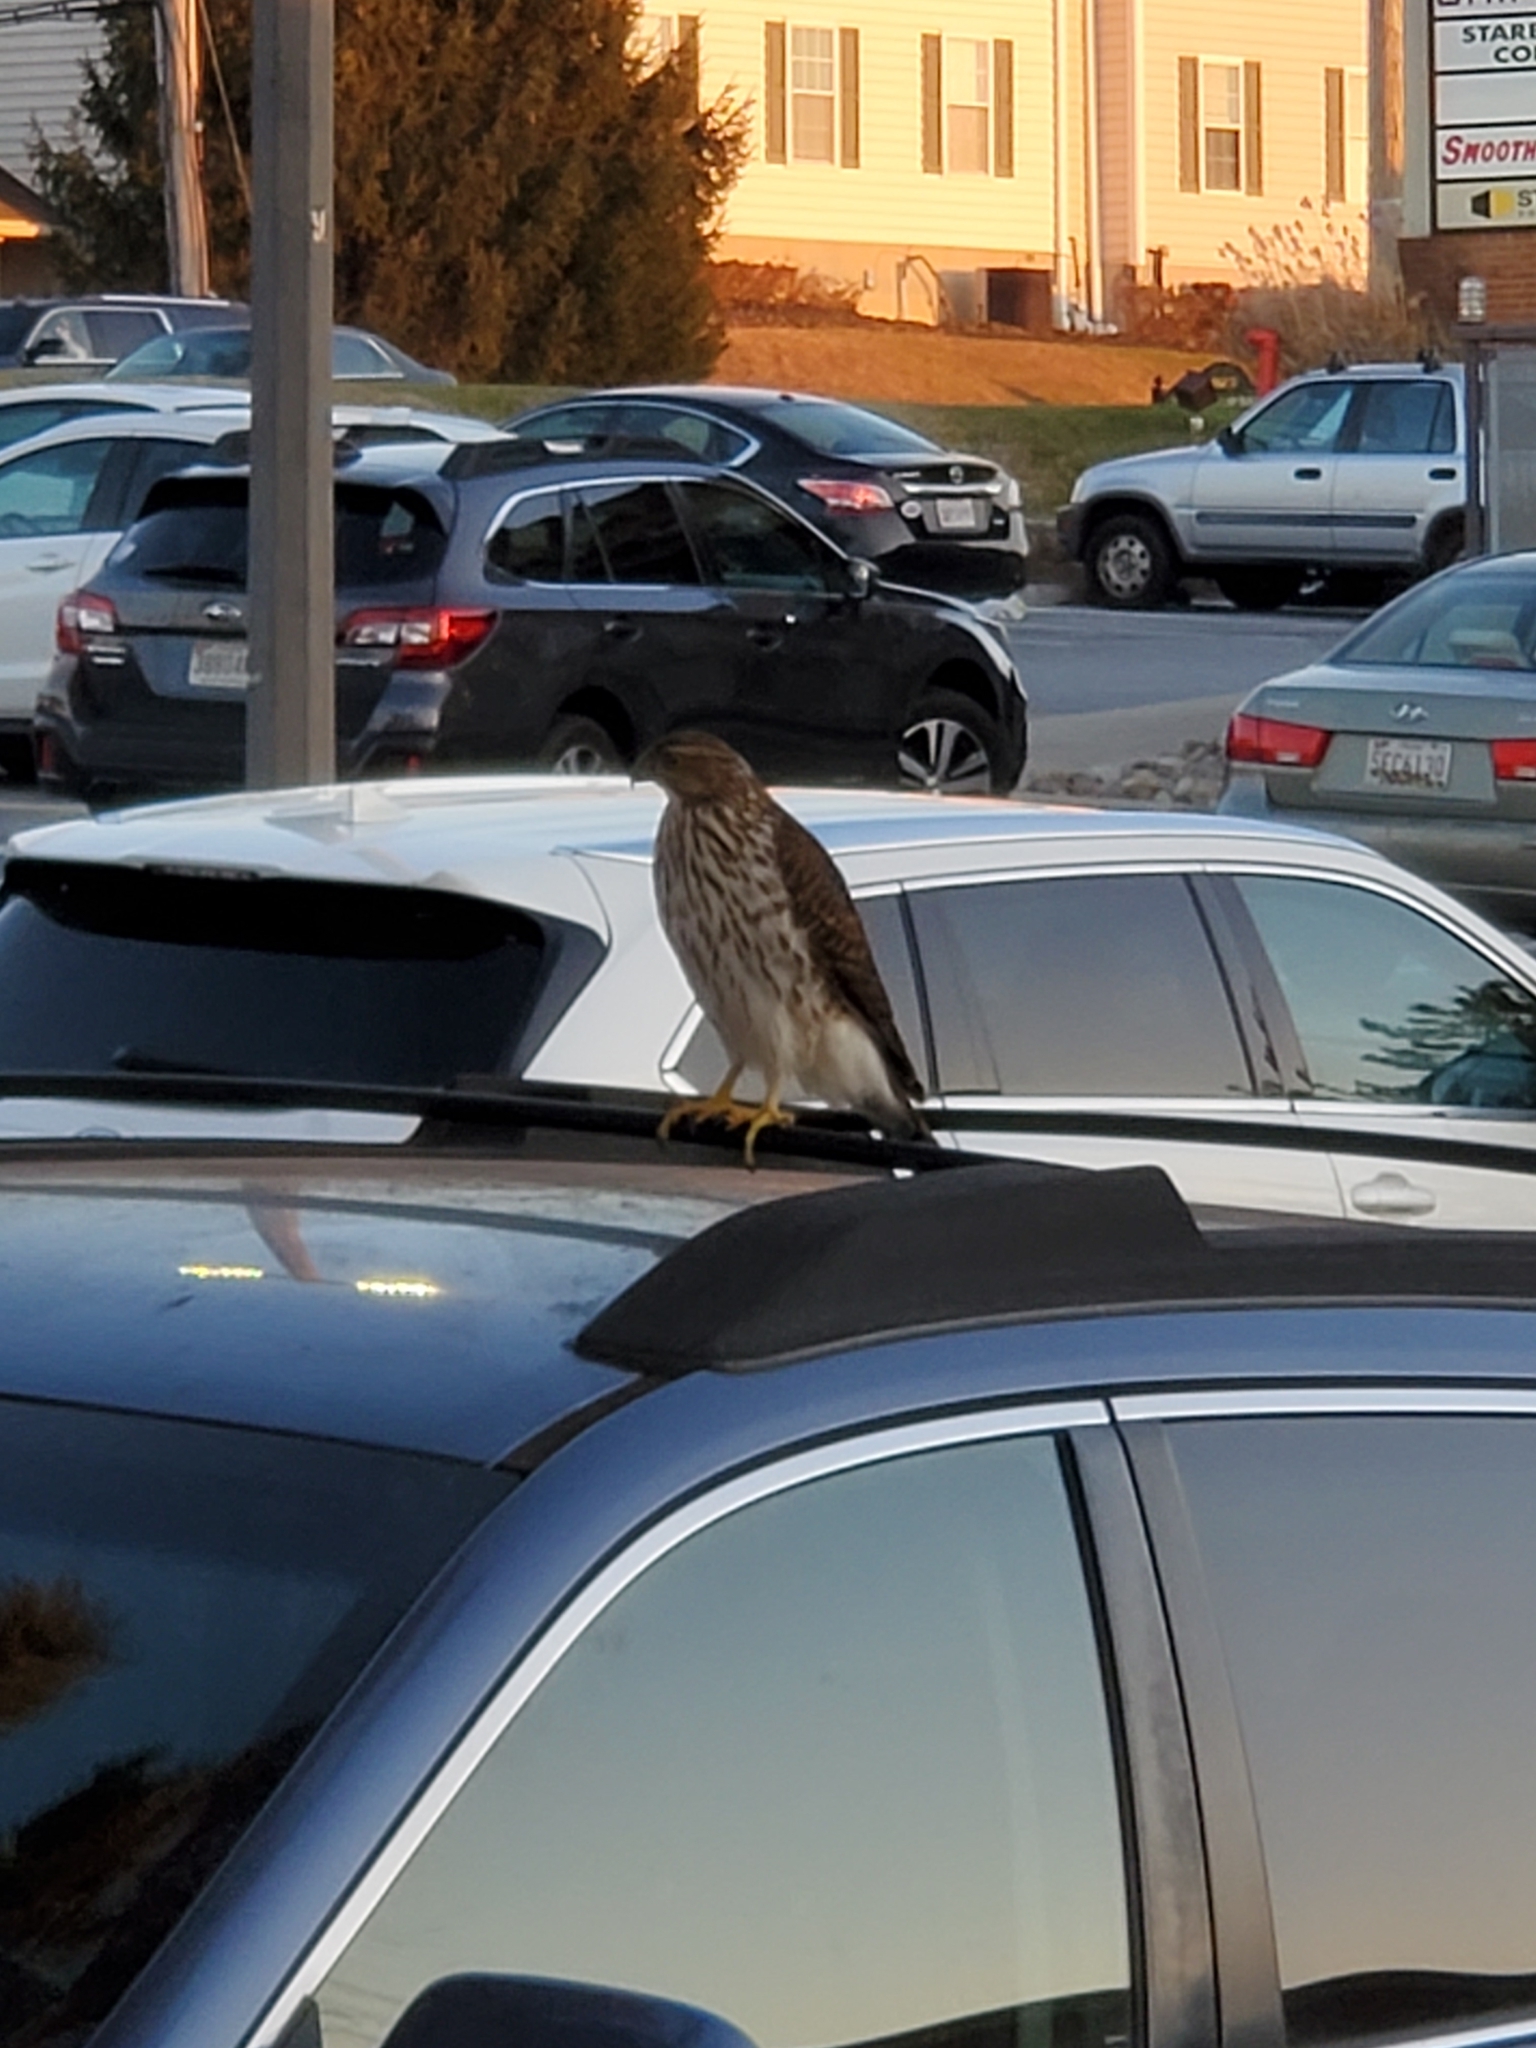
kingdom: Animalia
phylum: Chordata
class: Aves
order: Accipitriformes
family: Accipitridae
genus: Accipiter
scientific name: Accipiter cooperii
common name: Cooper's hawk
